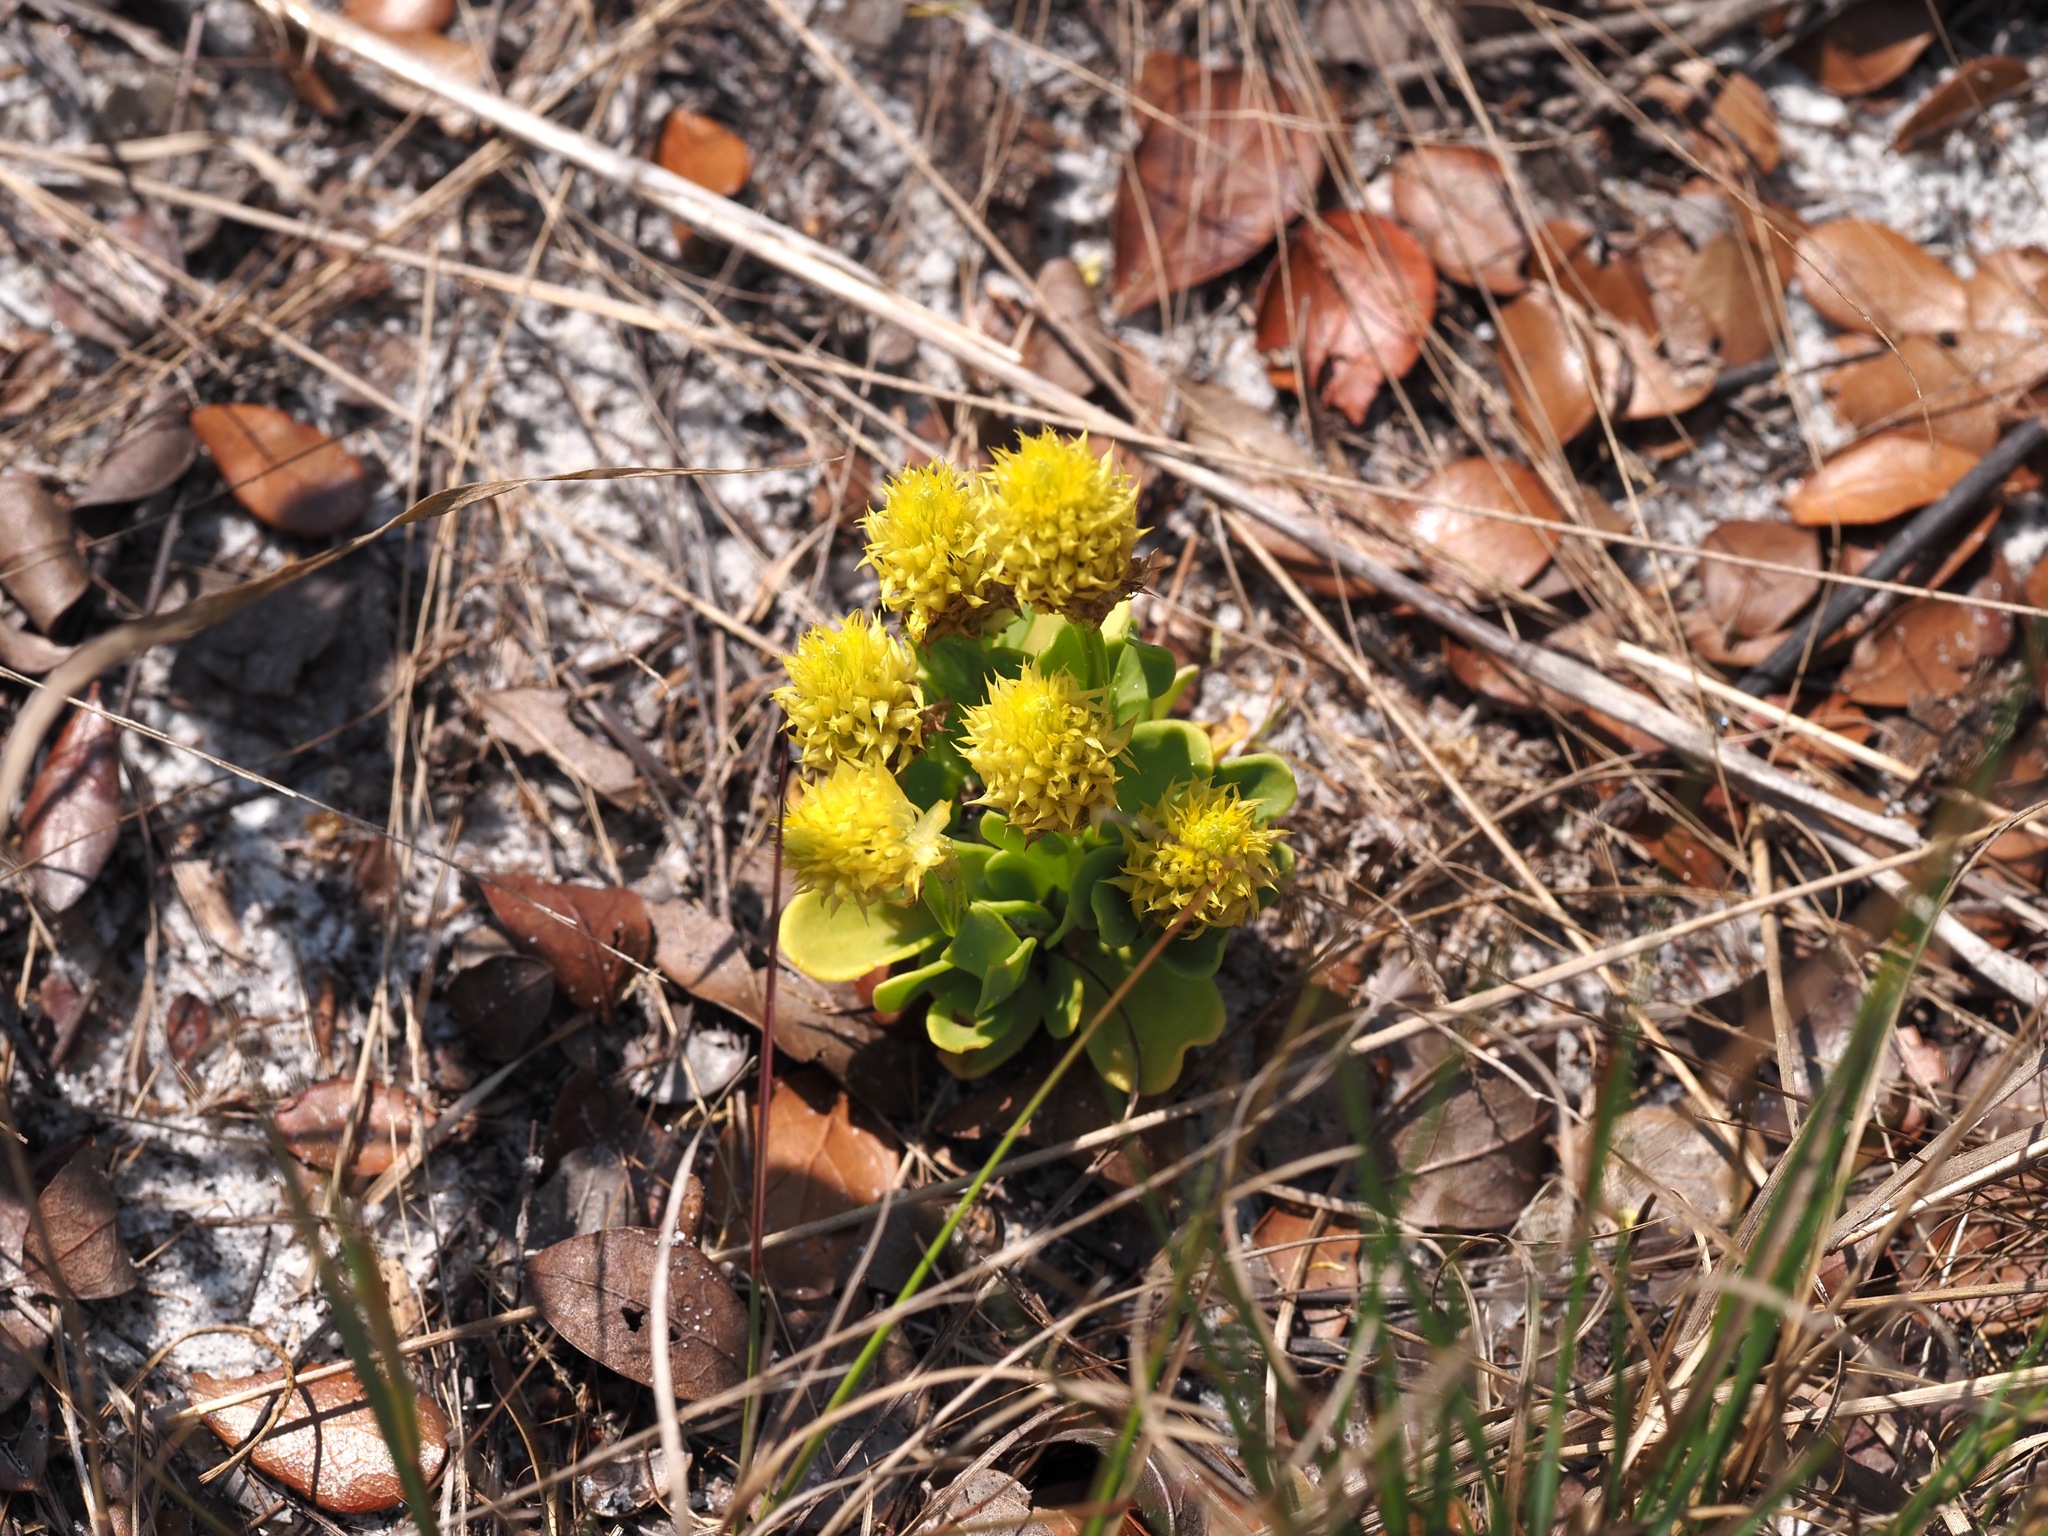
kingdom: Plantae
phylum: Tracheophyta
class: Magnoliopsida
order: Fabales
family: Polygalaceae
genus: Polygala
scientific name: Polygala nana
